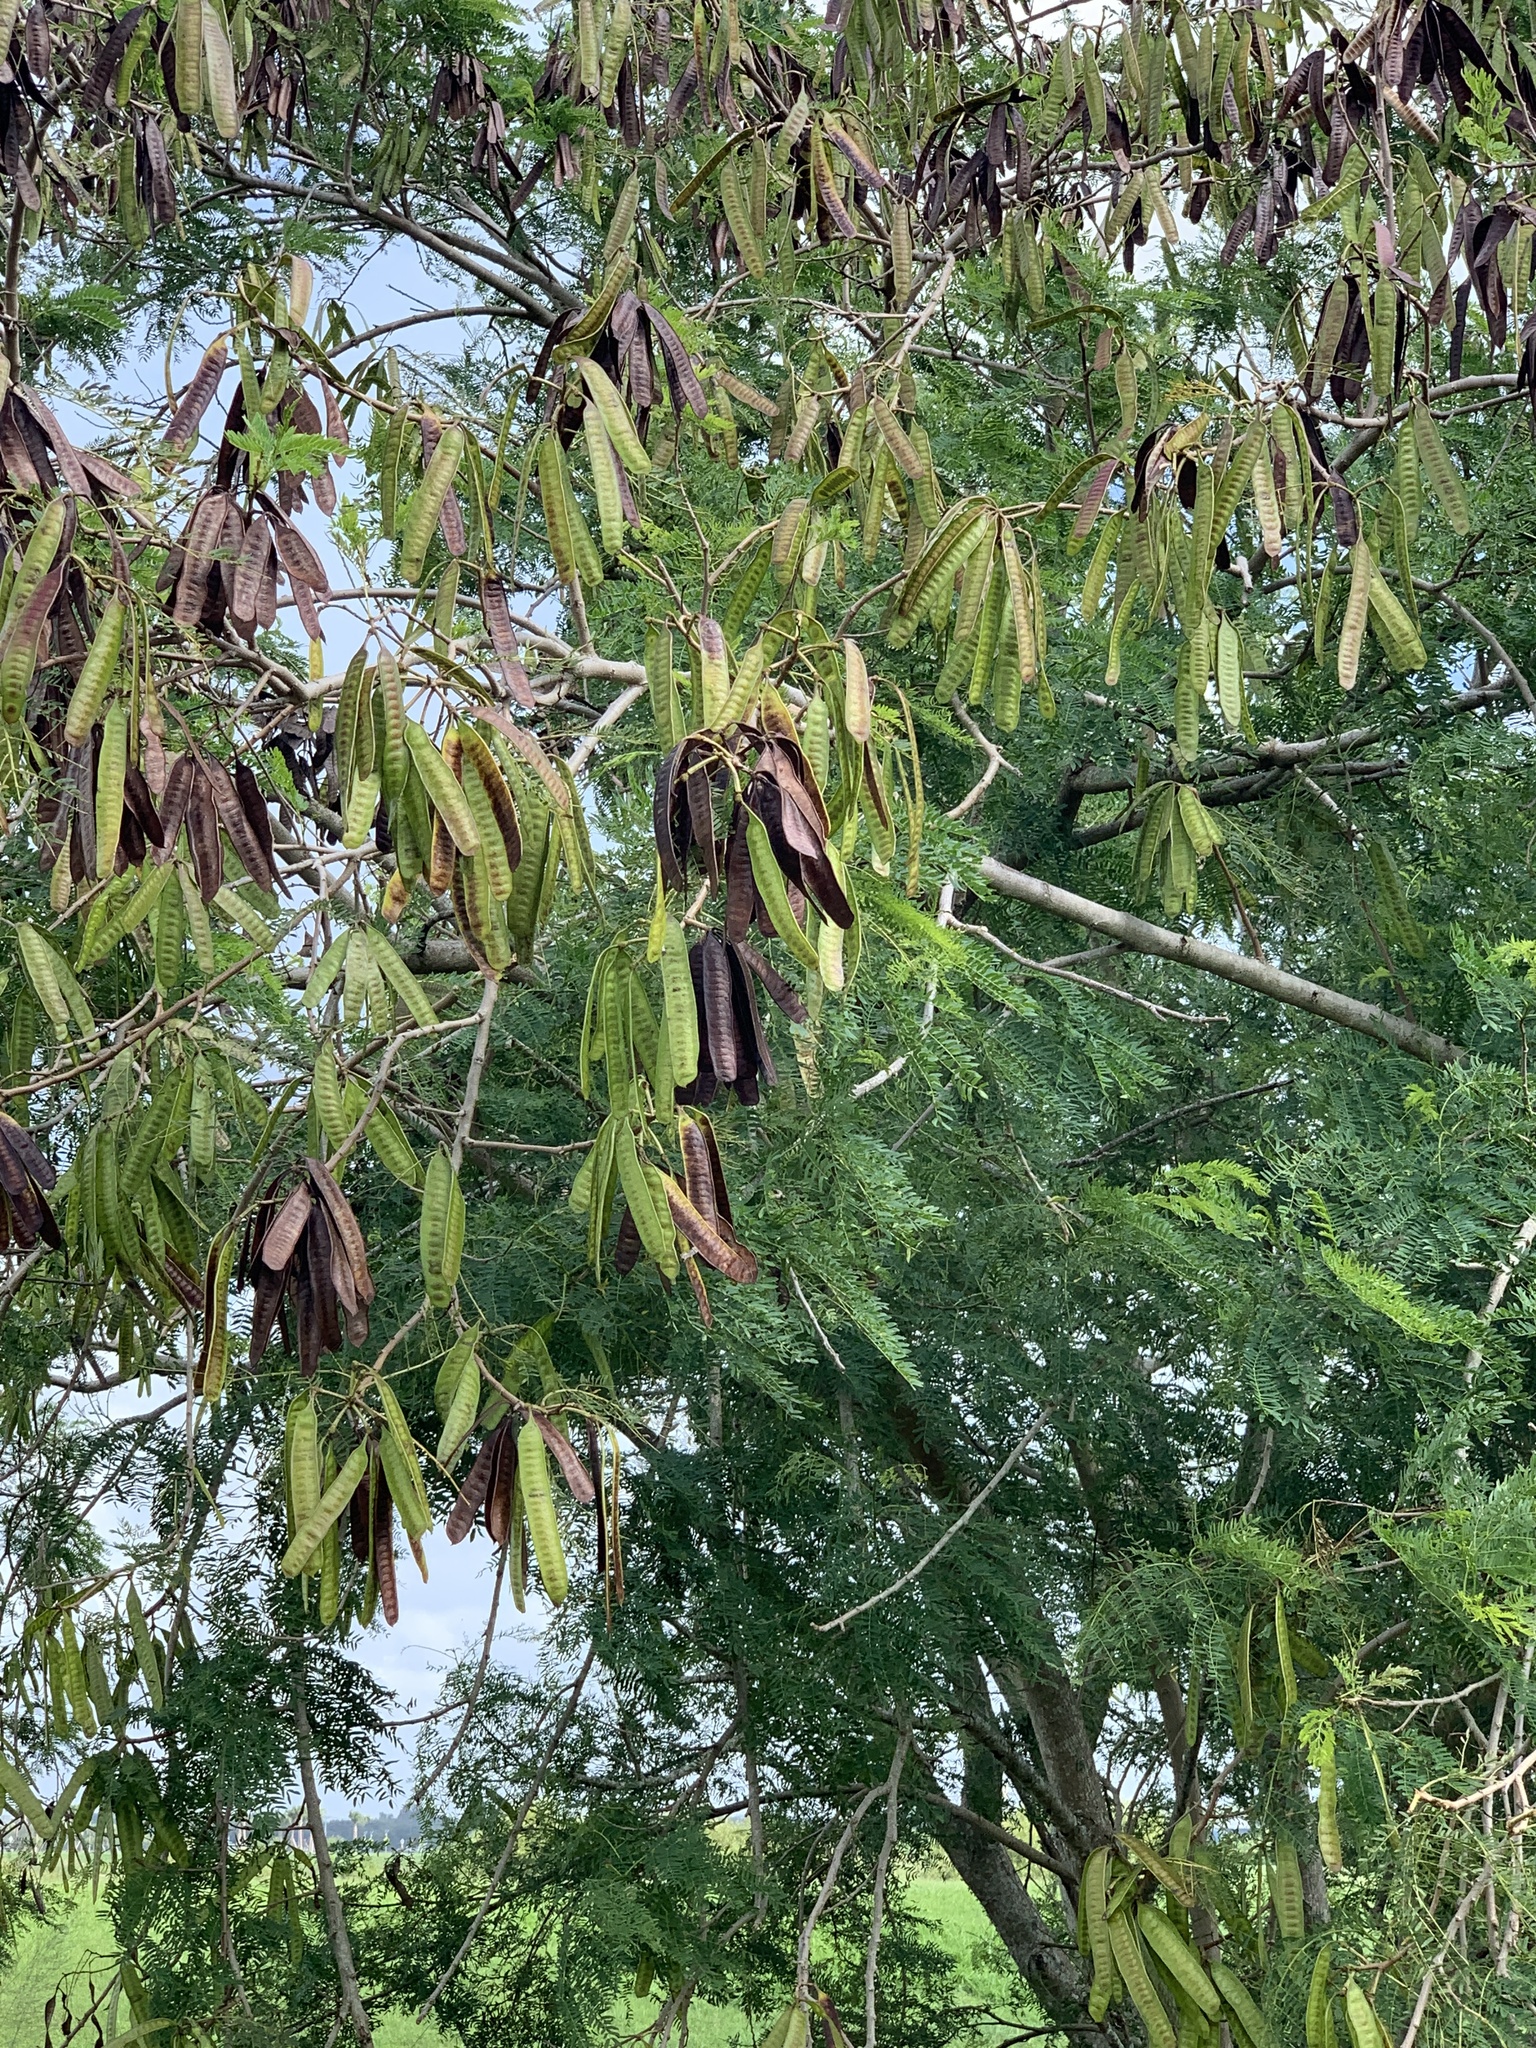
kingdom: Plantae
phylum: Tracheophyta
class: Magnoliopsida
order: Fabales
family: Fabaceae
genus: Leucaena
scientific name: Leucaena leucocephala
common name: White leadtree
